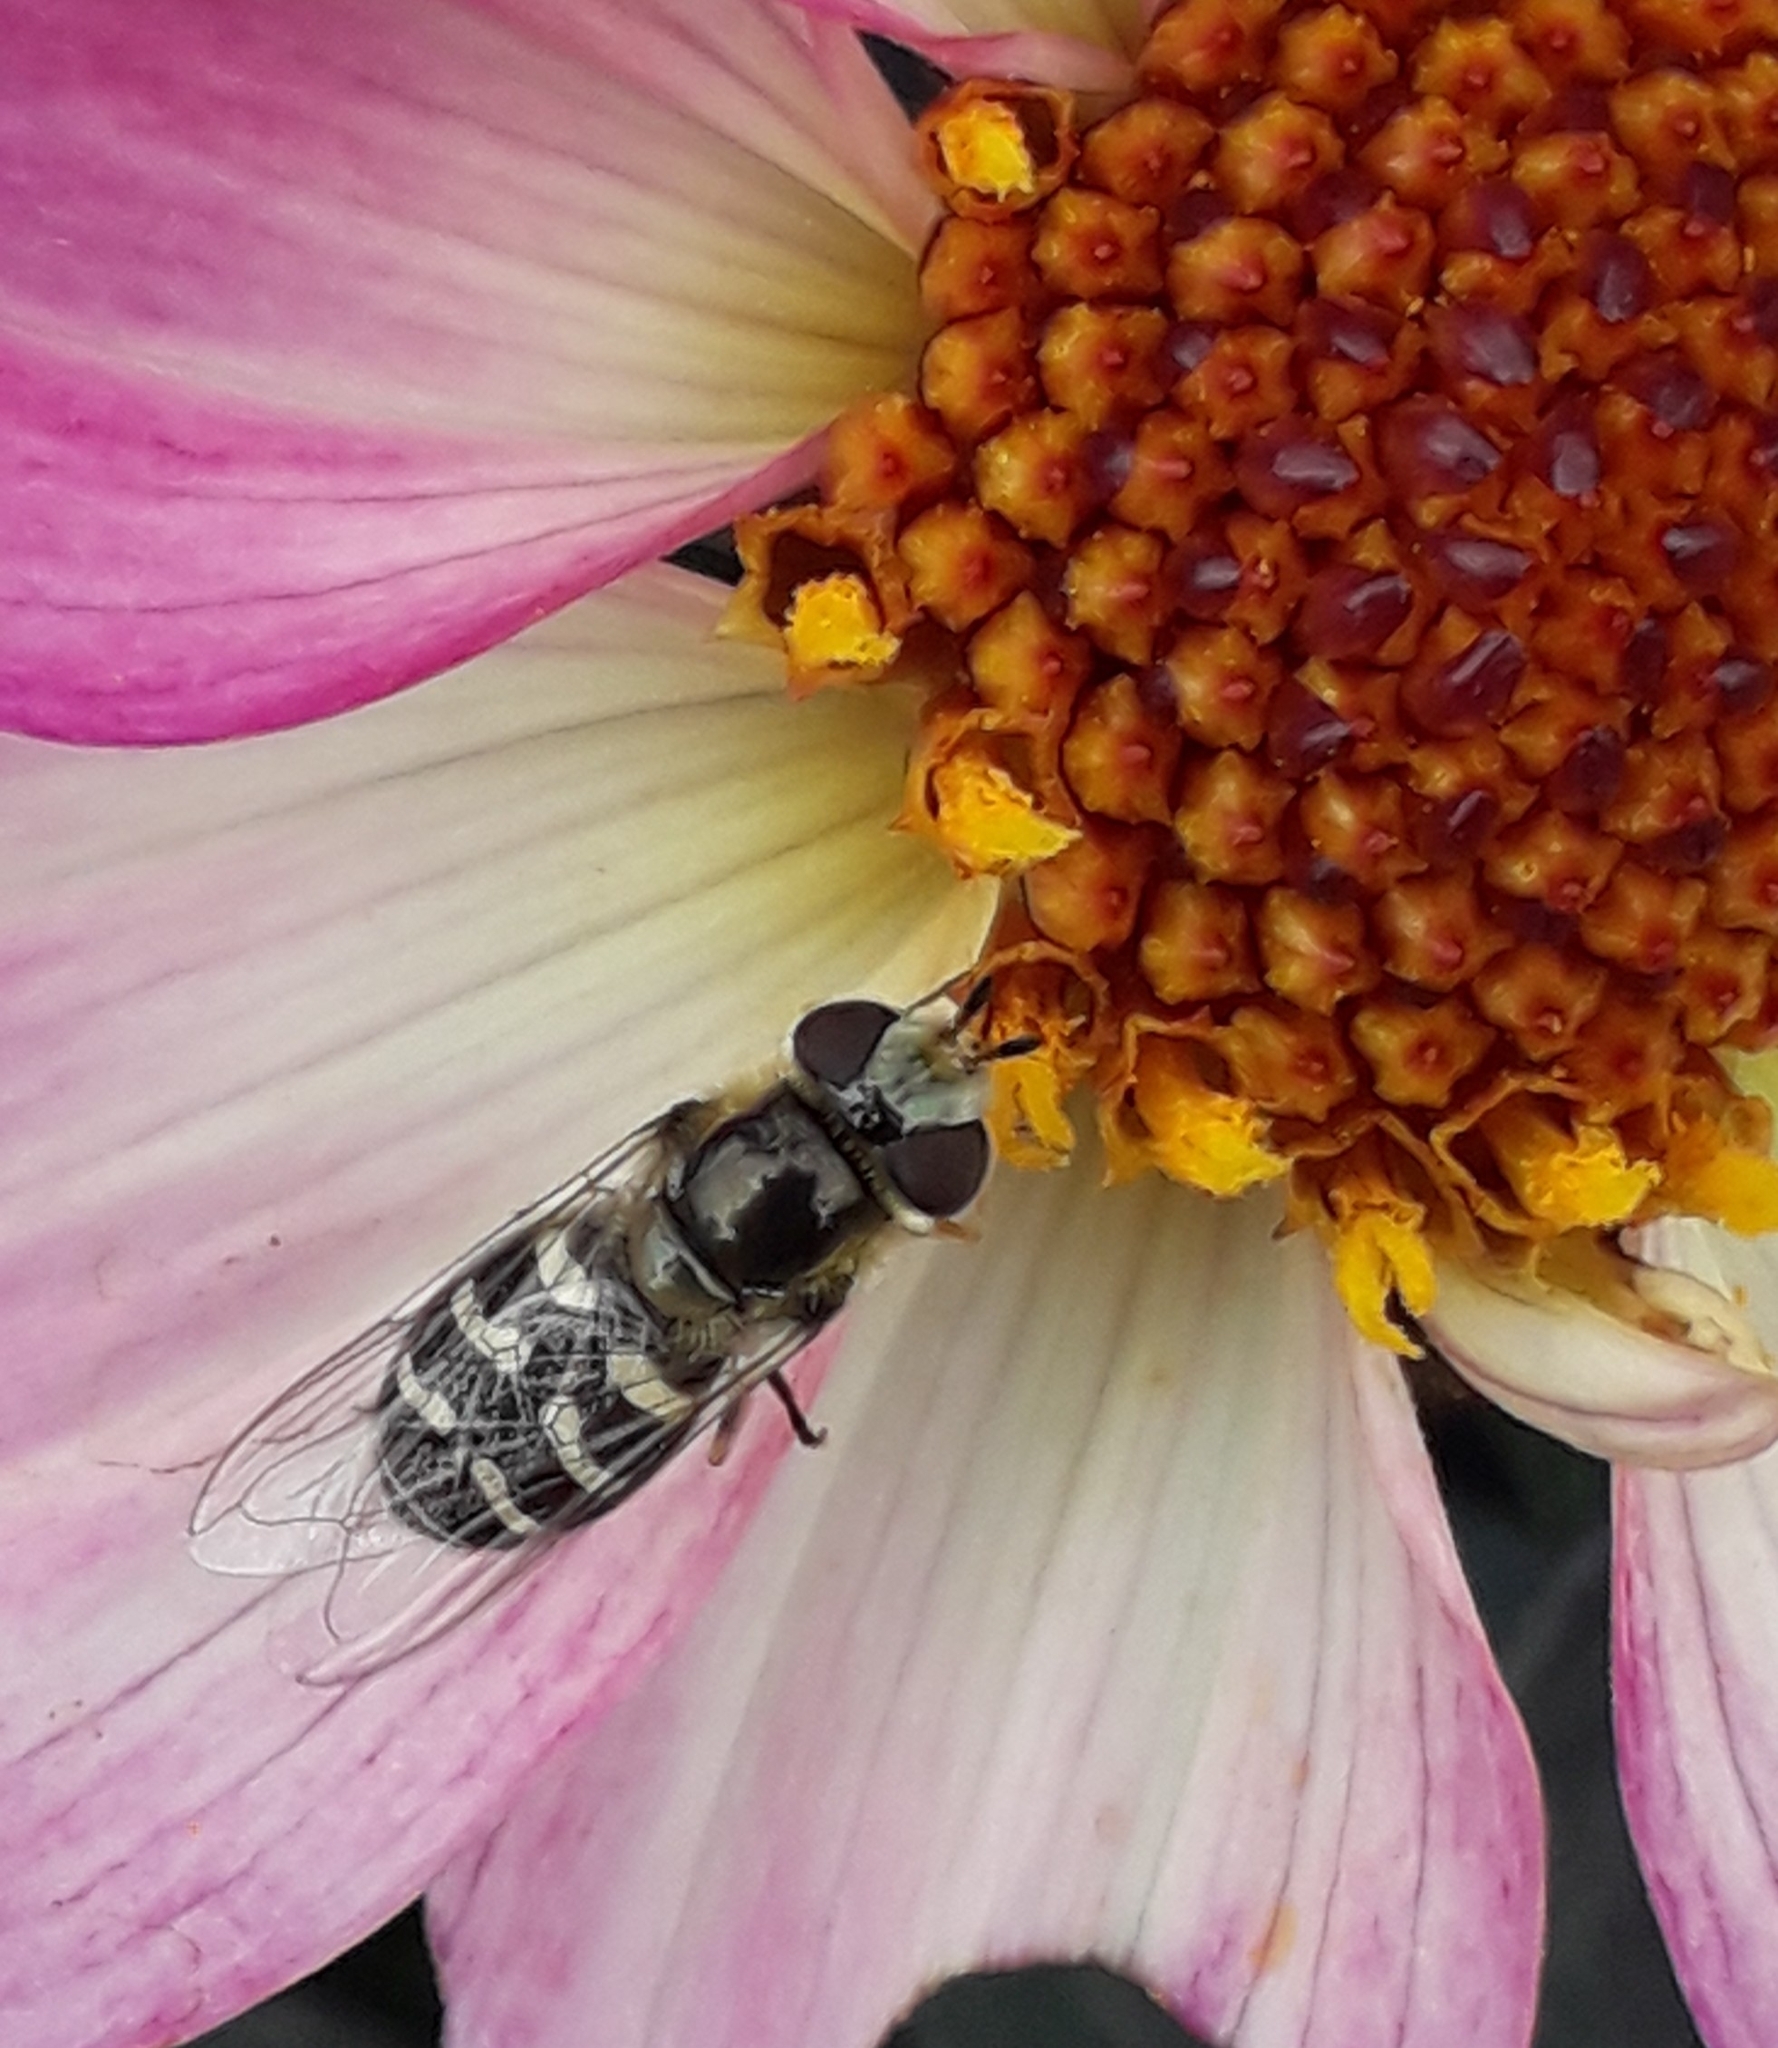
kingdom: Animalia
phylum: Arthropoda
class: Insecta
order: Diptera
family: Syrphidae
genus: Scaeva
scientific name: Scaeva pyrastri
